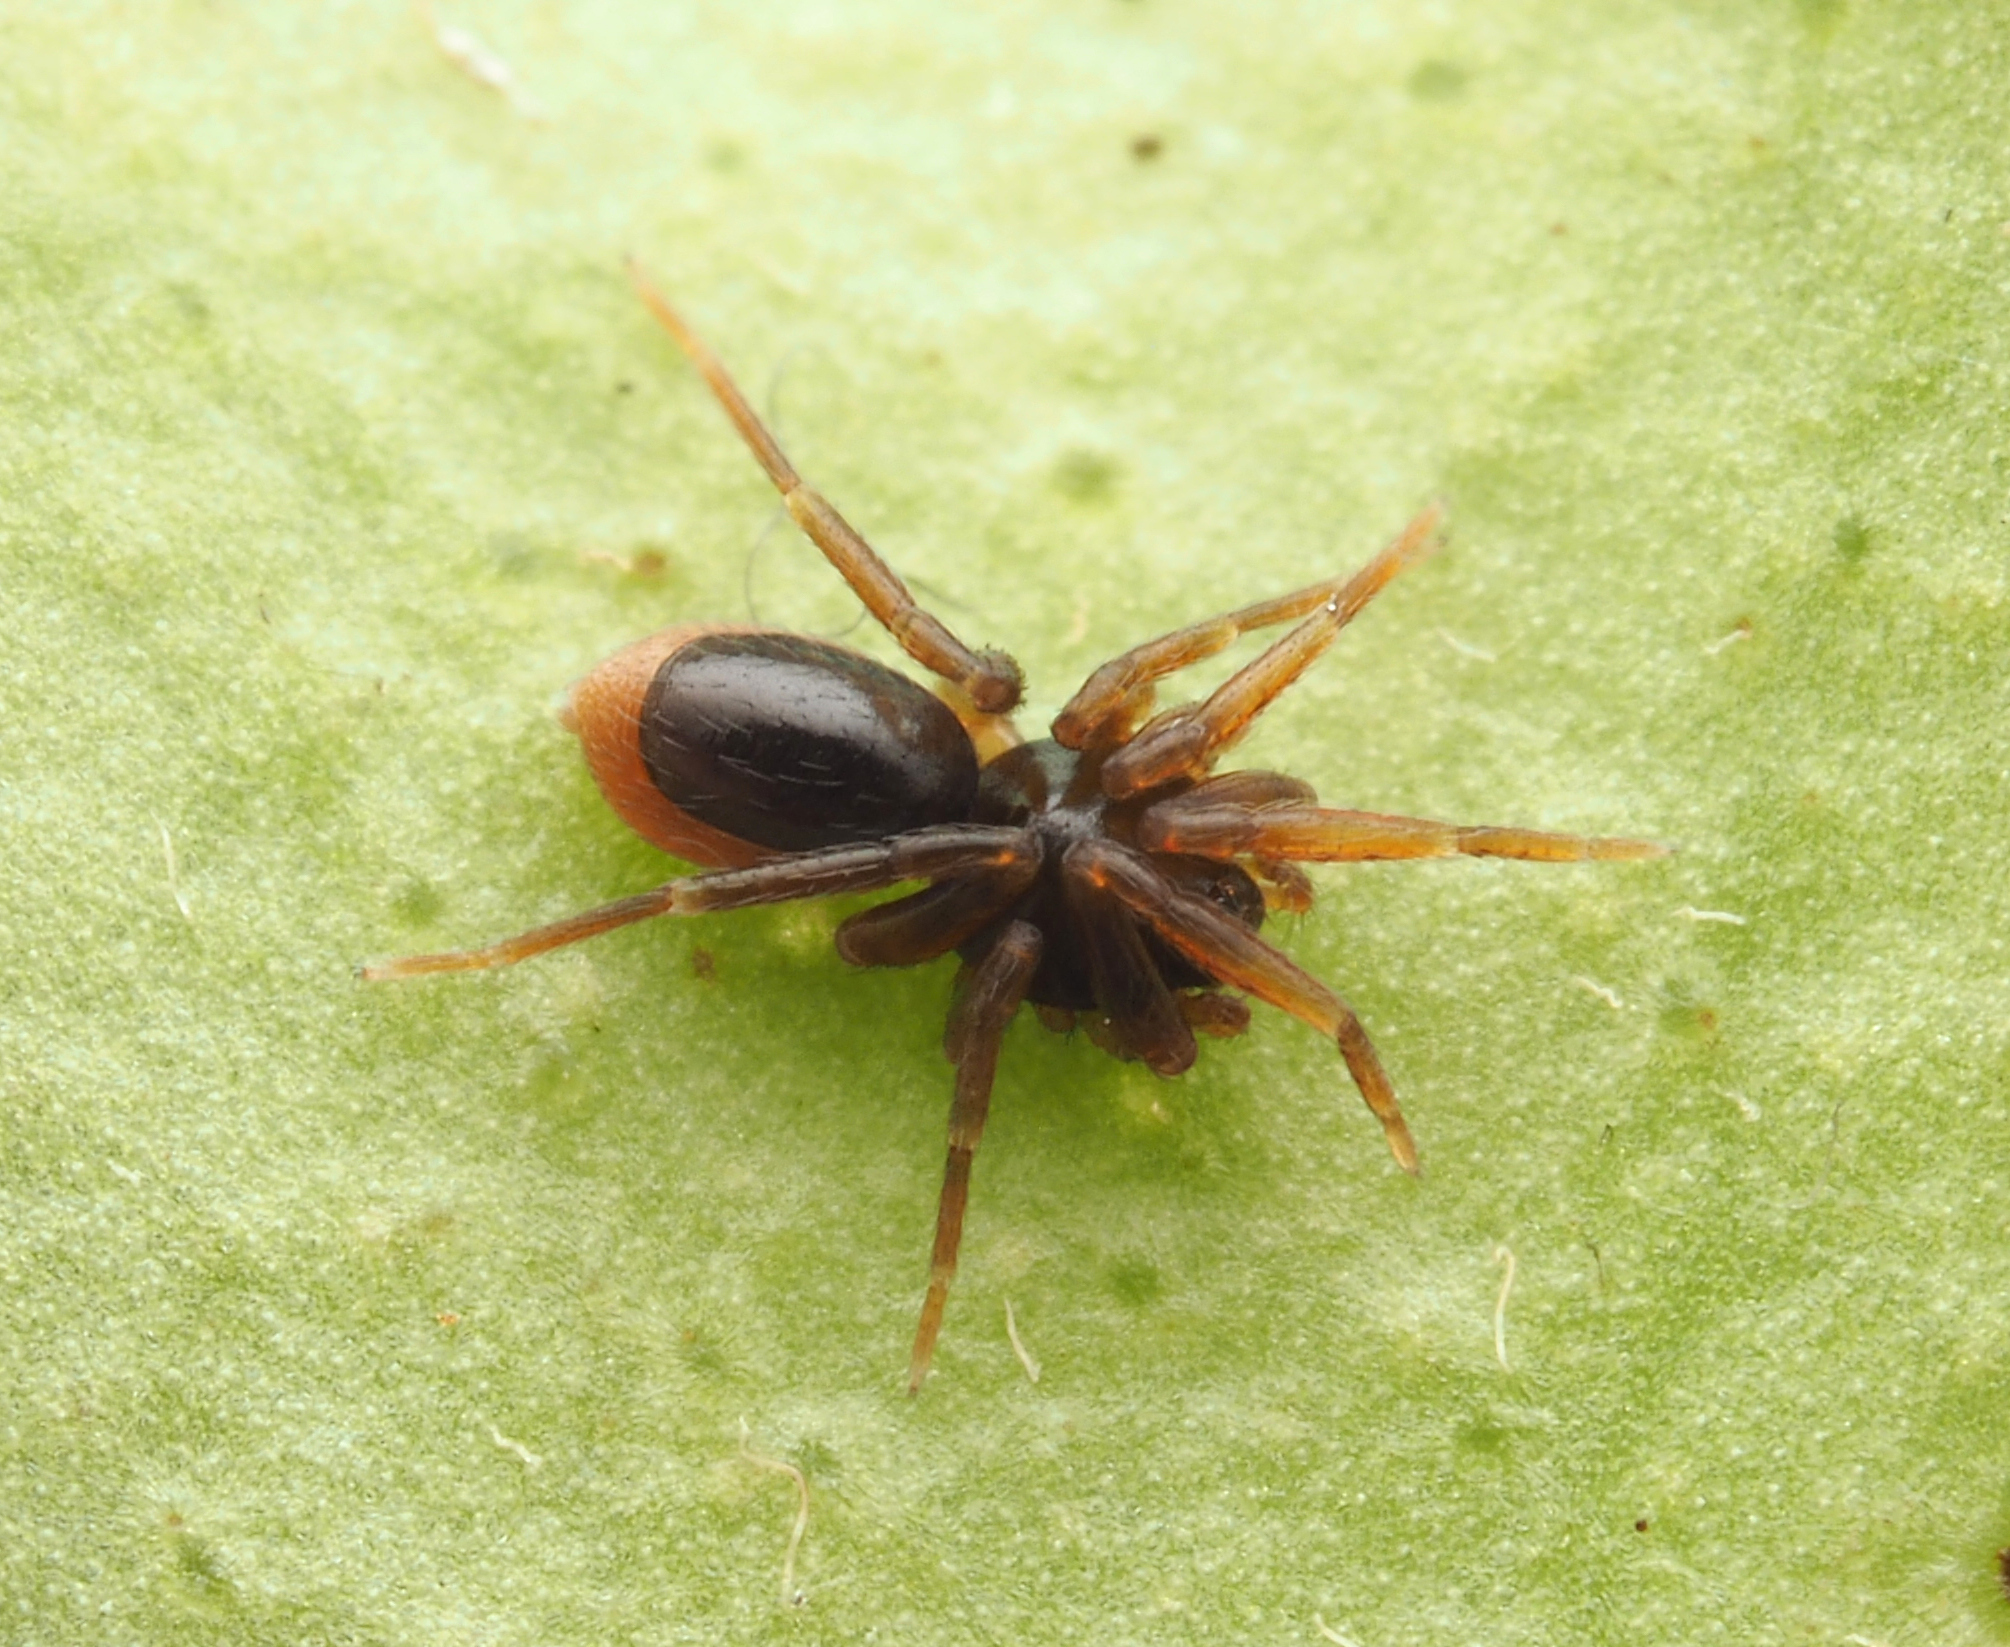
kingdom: Animalia
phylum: Arthropoda
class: Arachnida
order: Araneae
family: Oonopidae
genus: Ischnothyreus
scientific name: Ischnothyreus hamatus
